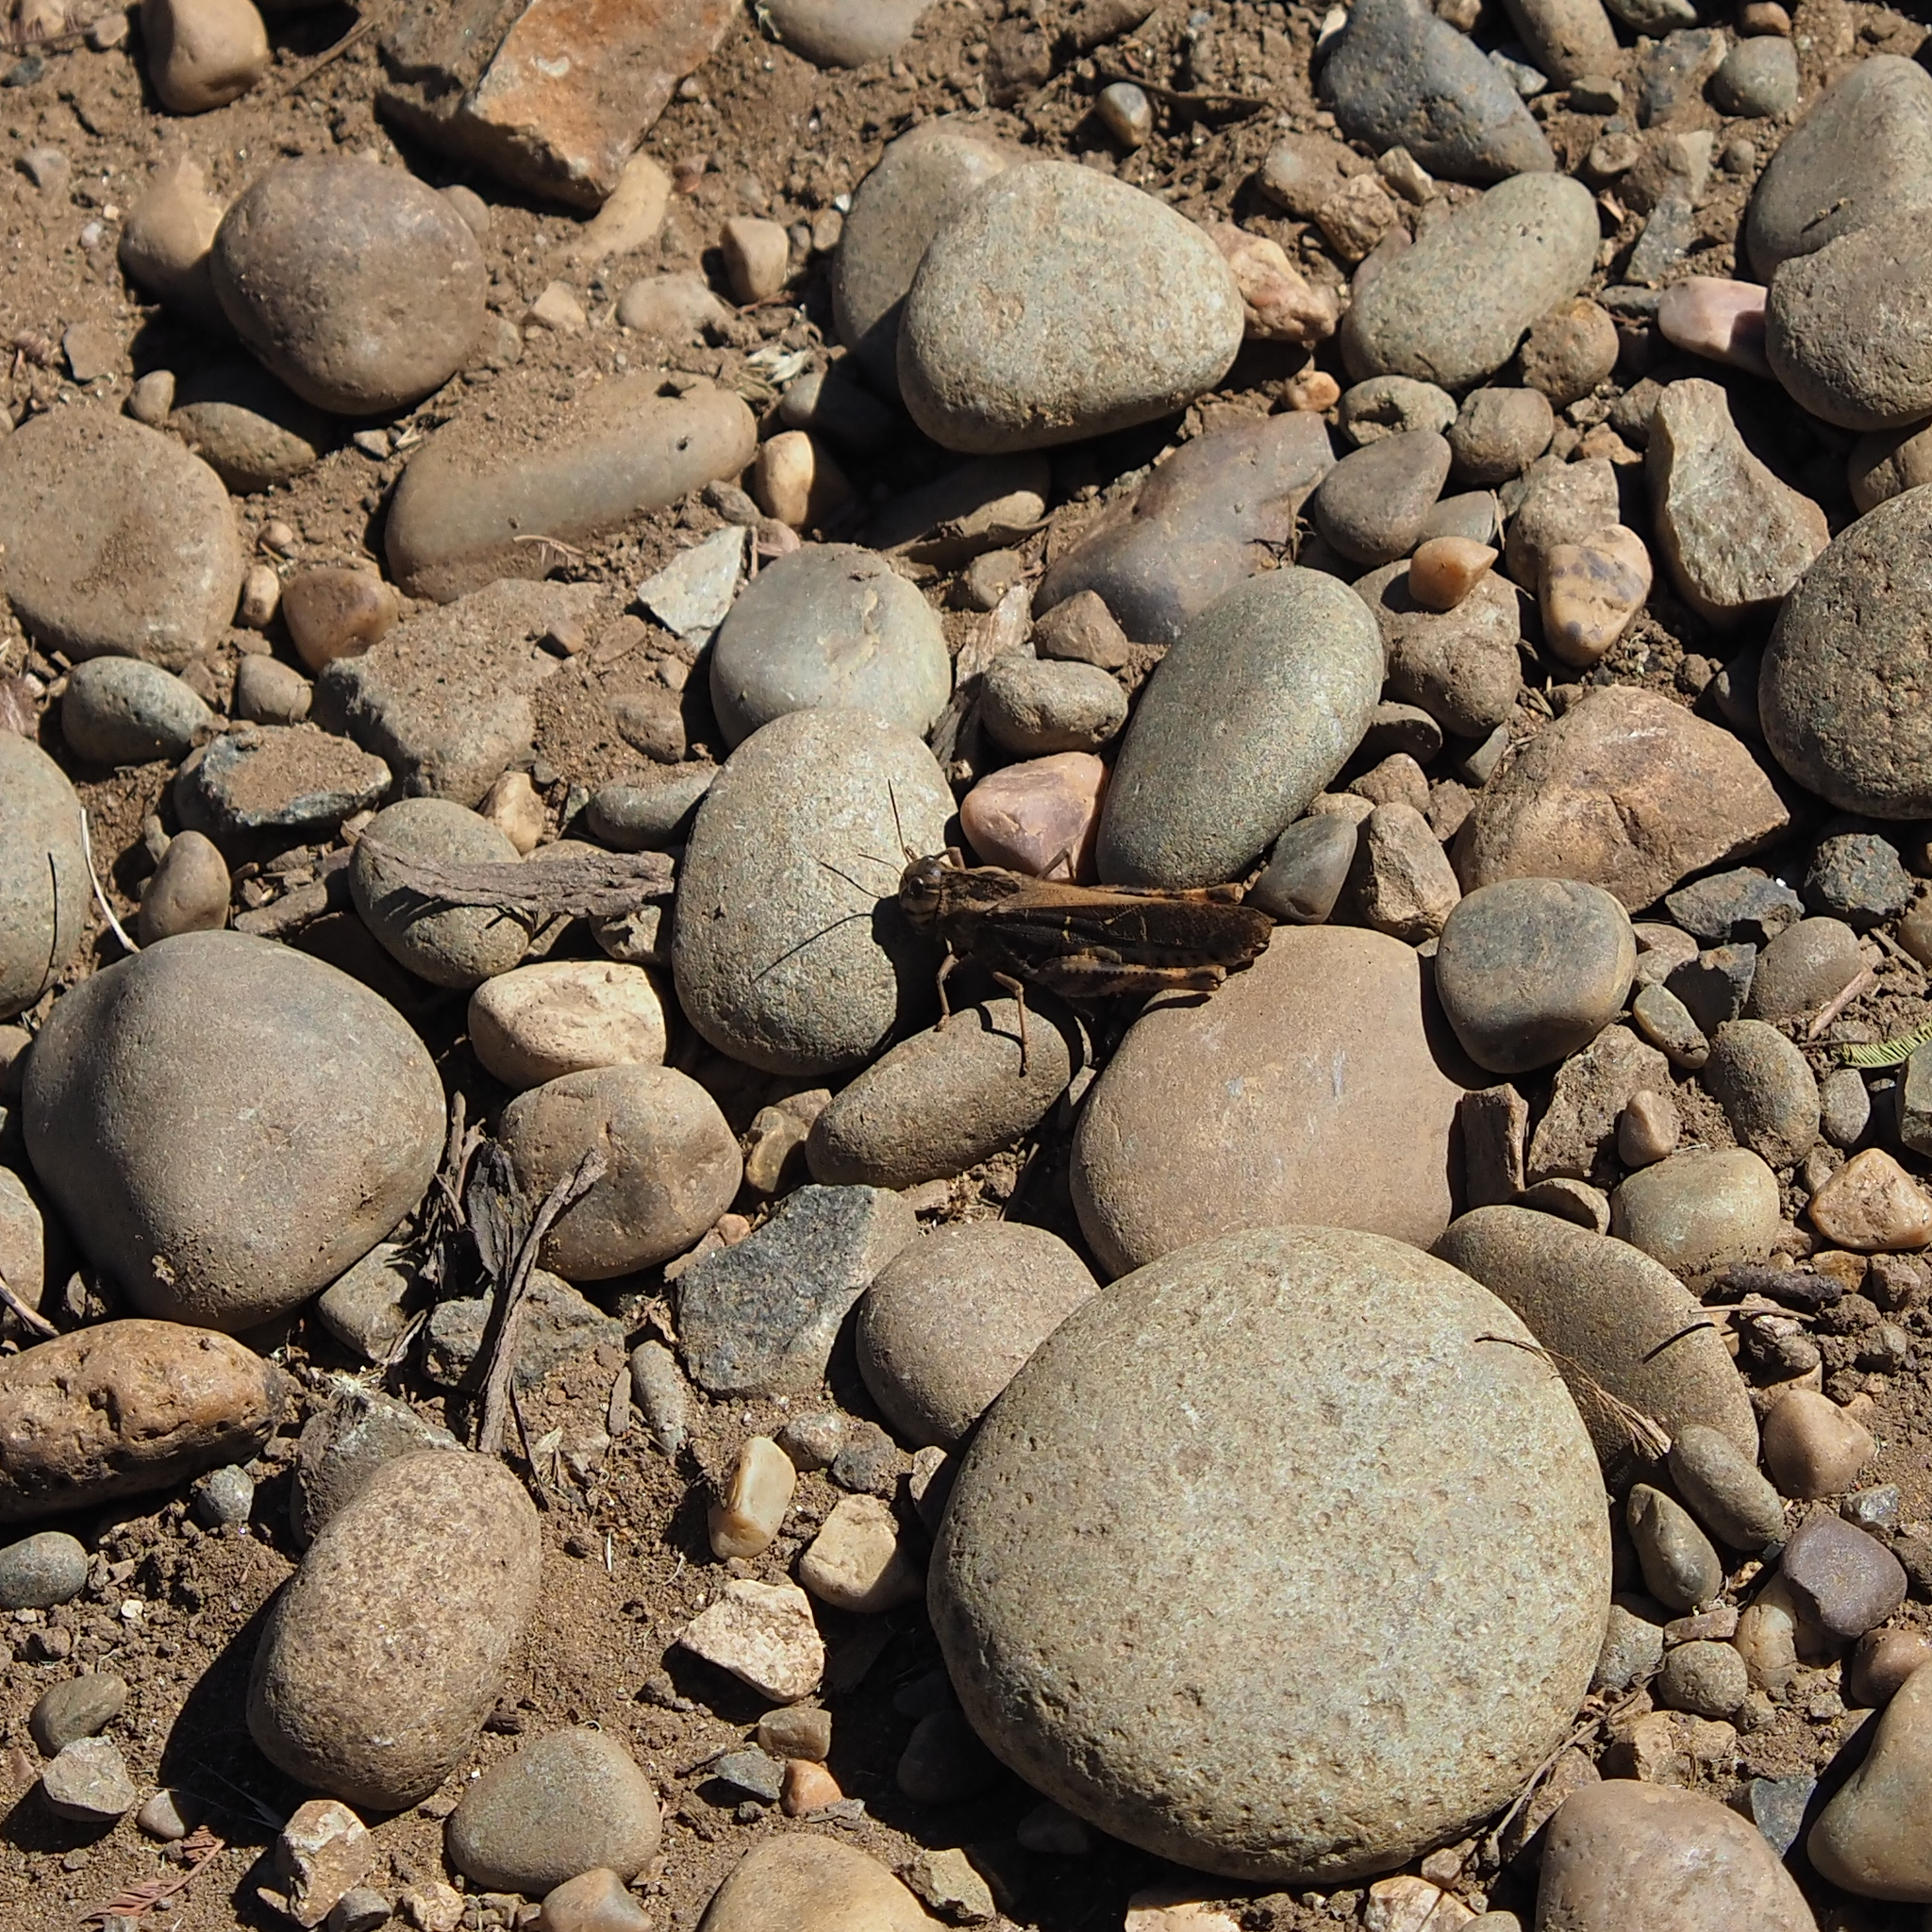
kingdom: Animalia
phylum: Arthropoda
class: Insecta
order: Orthoptera
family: Acrididae
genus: Gastrimargus
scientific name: Gastrimargus musicus
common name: Yellow-winged locust
